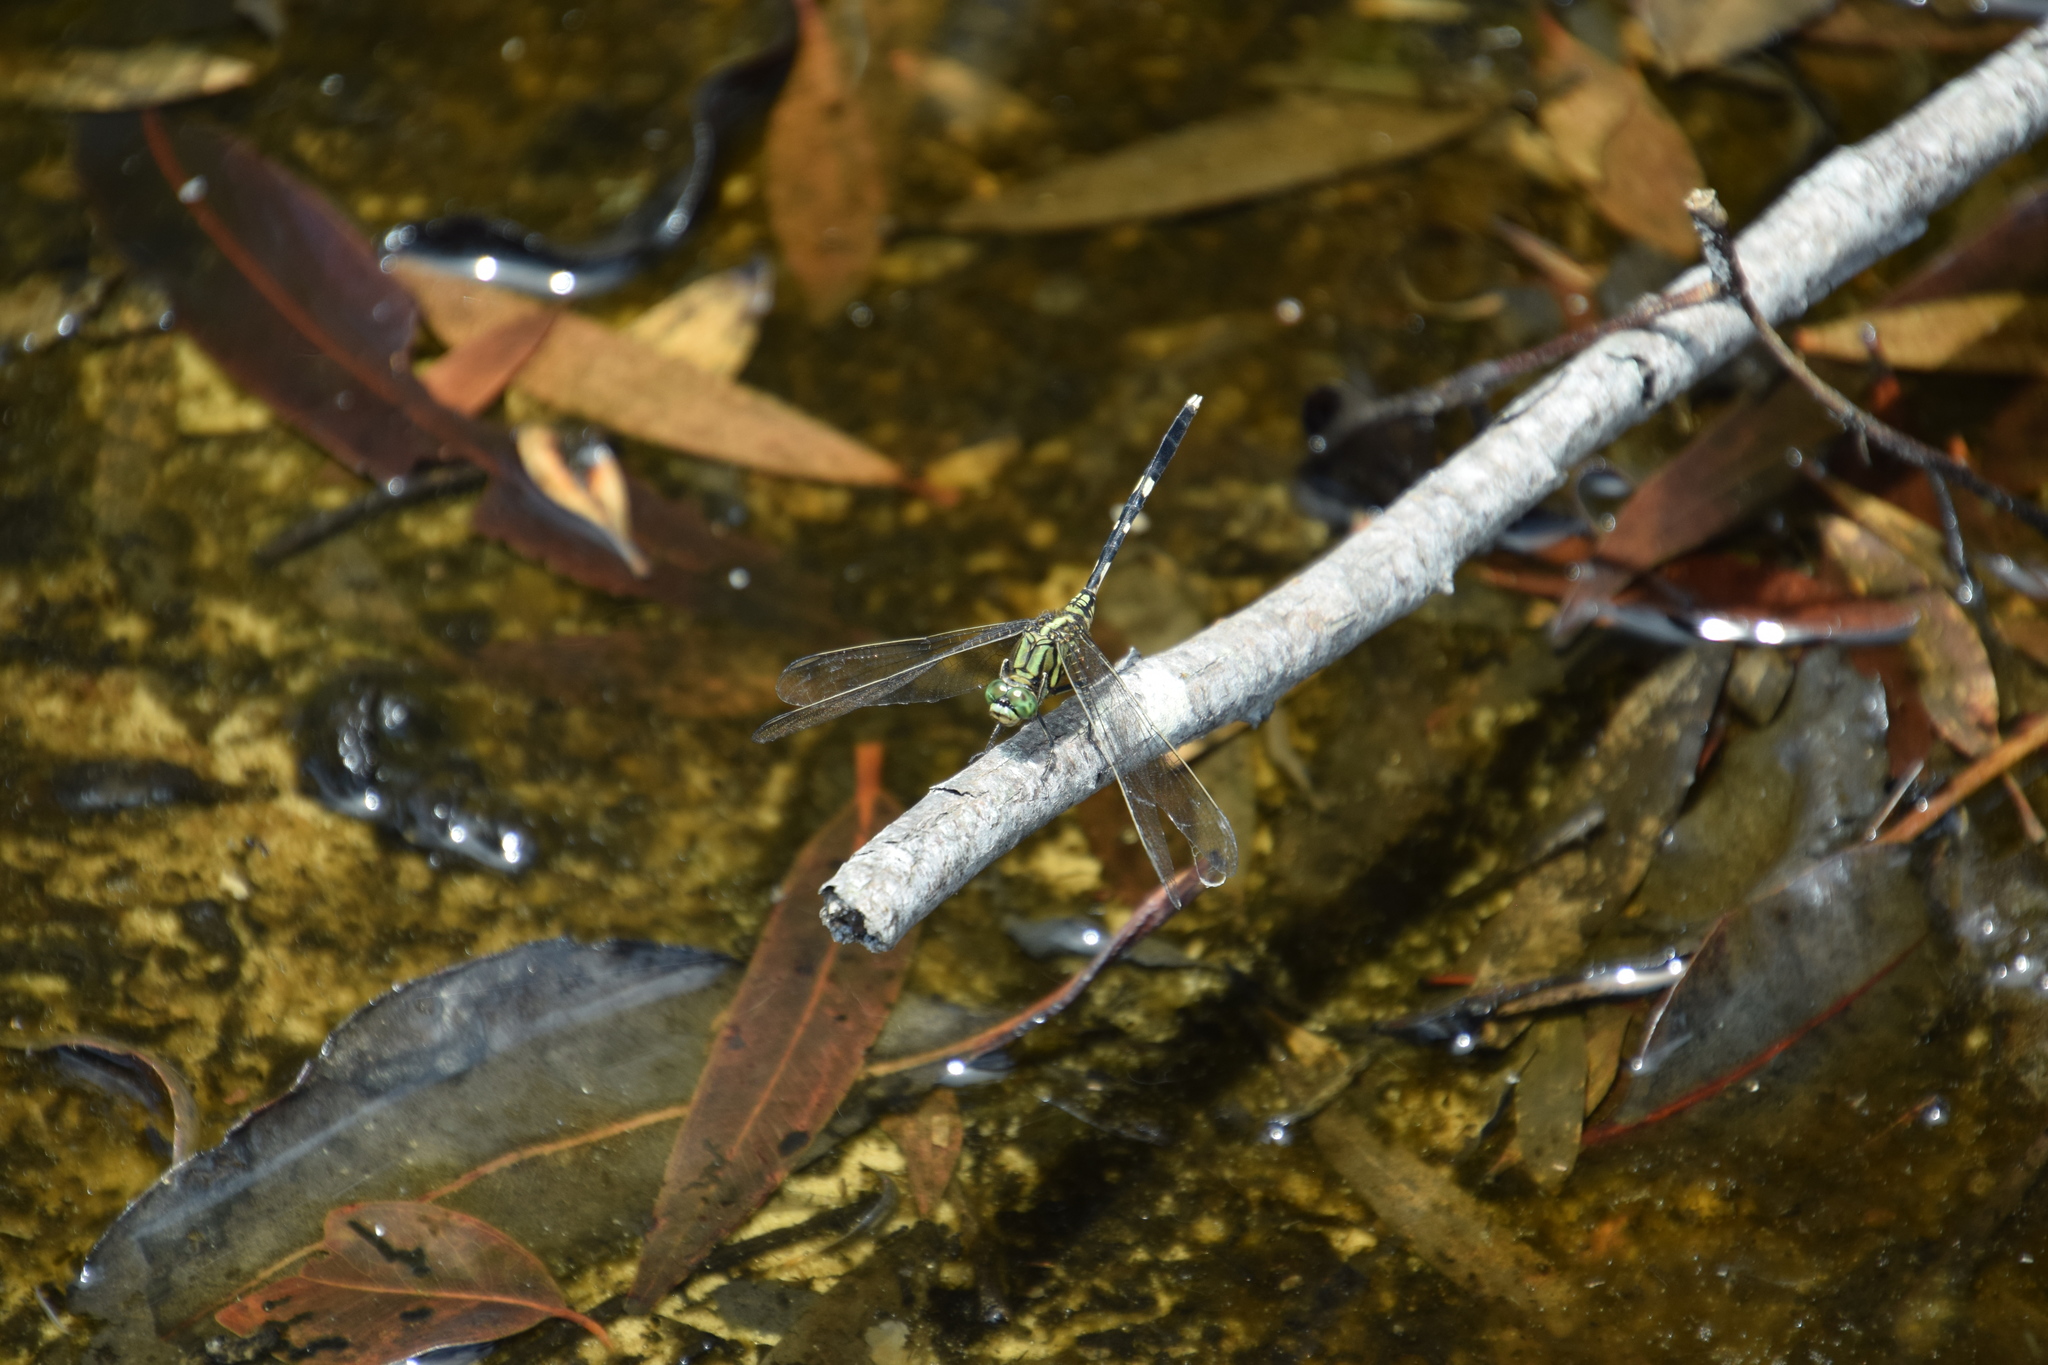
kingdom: Animalia
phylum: Arthropoda
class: Insecta
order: Odonata
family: Libellulidae
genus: Orthetrum
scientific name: Orthetrum sabina
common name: Slender skimmer
